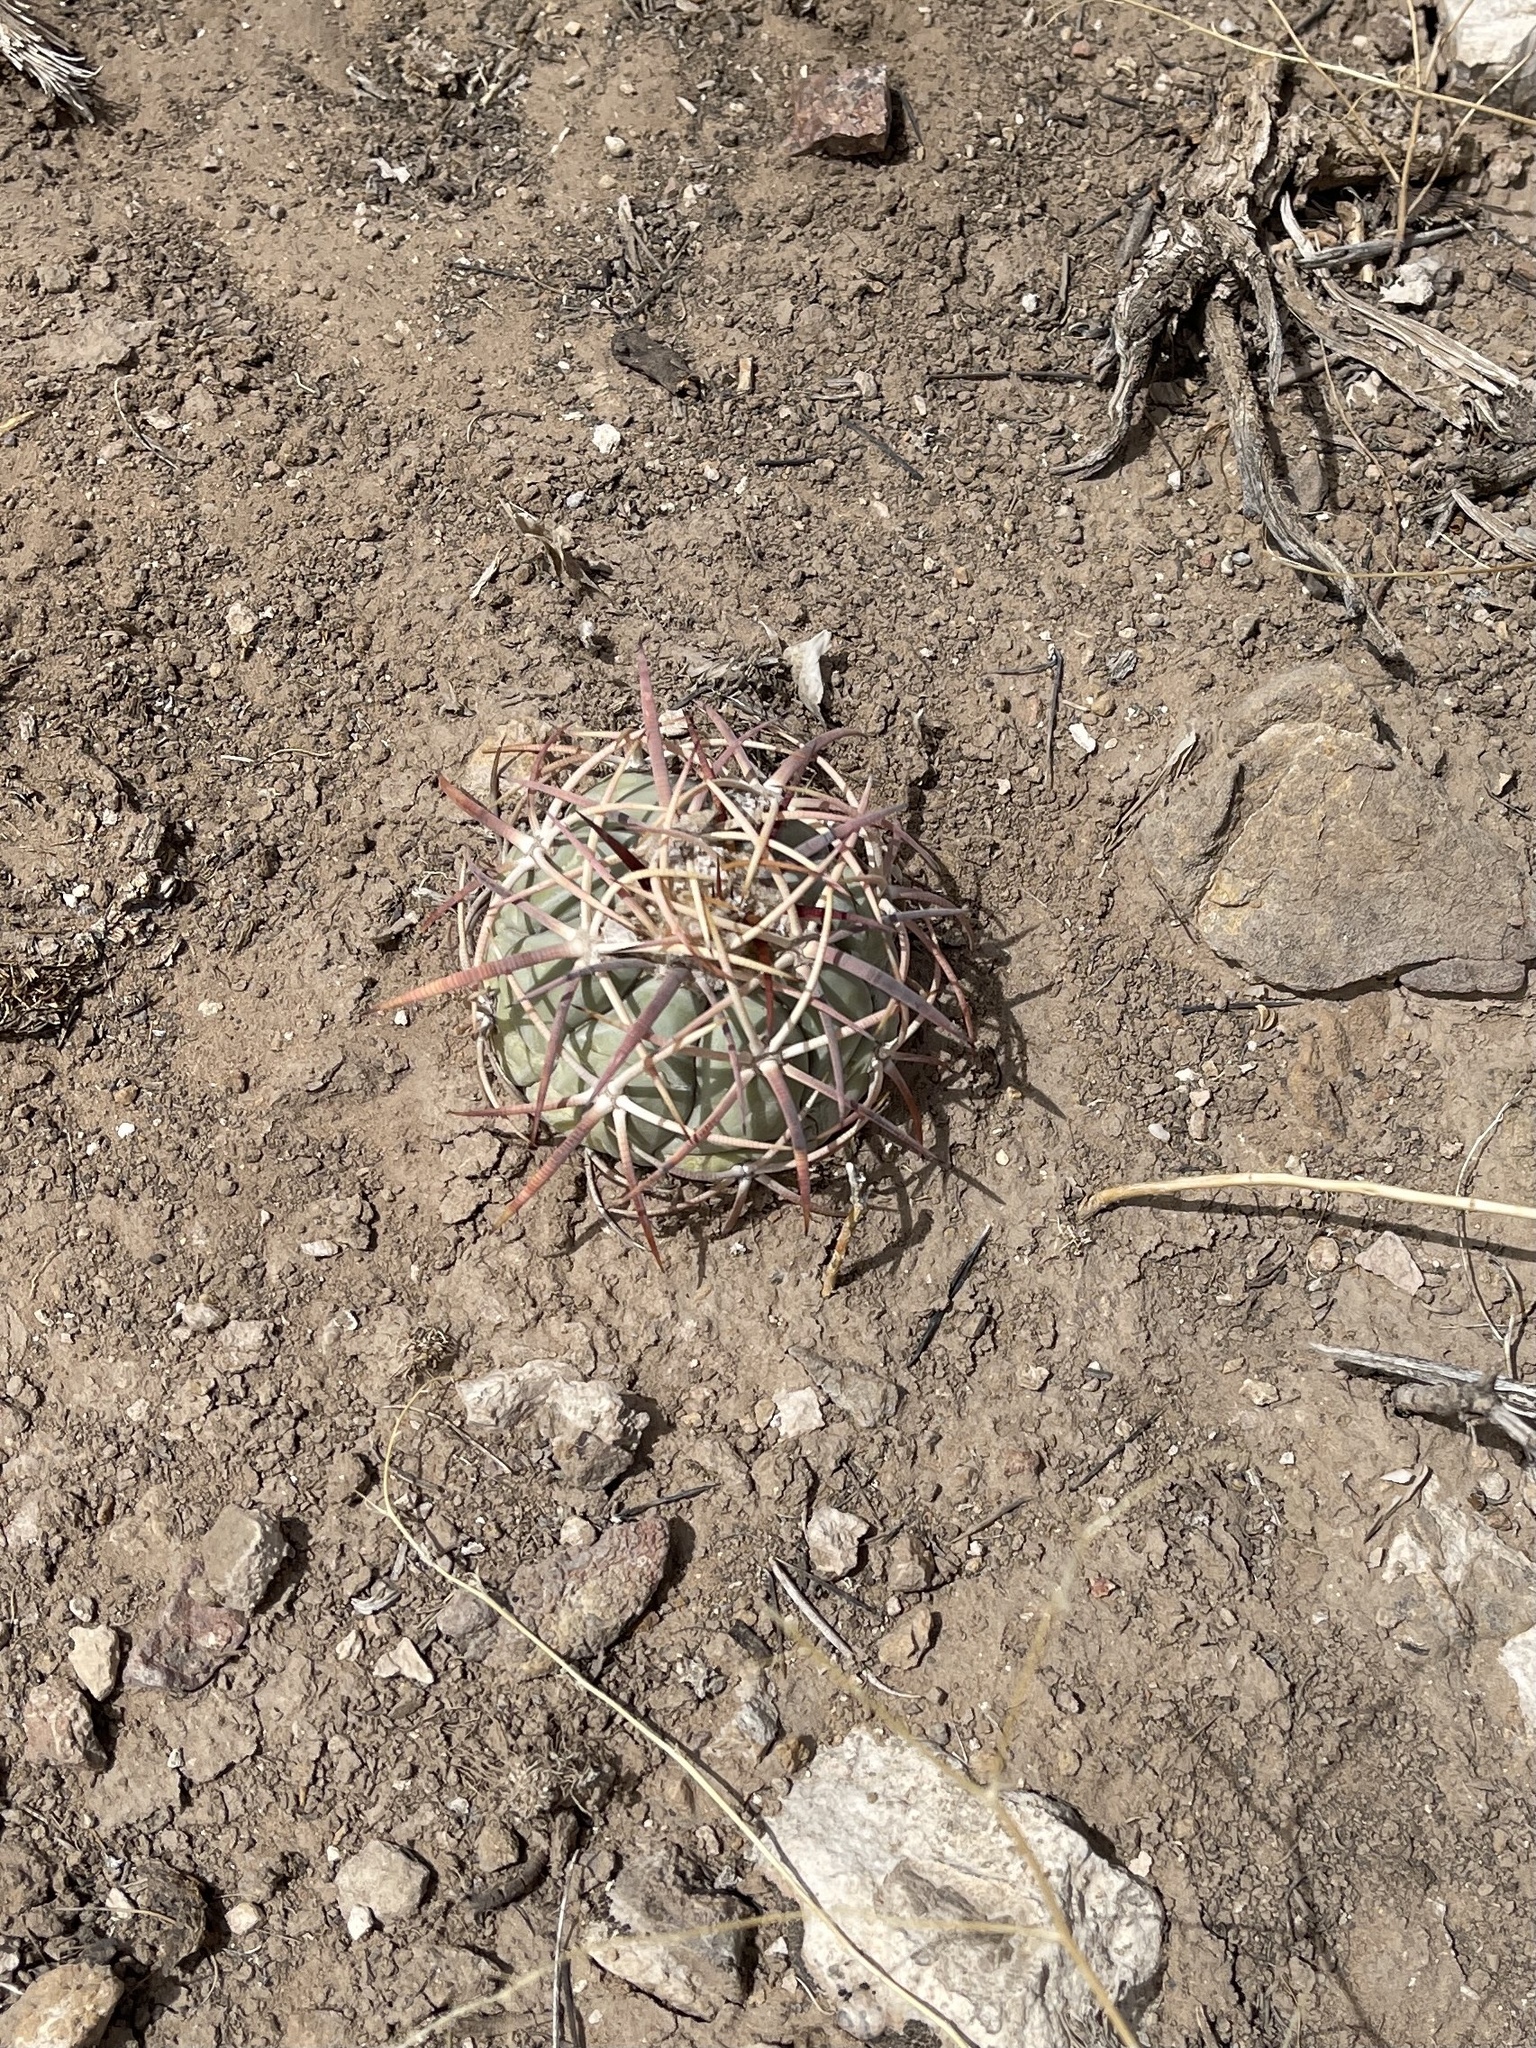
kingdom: Plantae
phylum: Tracheophyta
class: Magnoliopsida
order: Caryophyllales
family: Cactaceae
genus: Echinocactus
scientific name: Echinocactus horizonthalonius
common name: Devilshead
